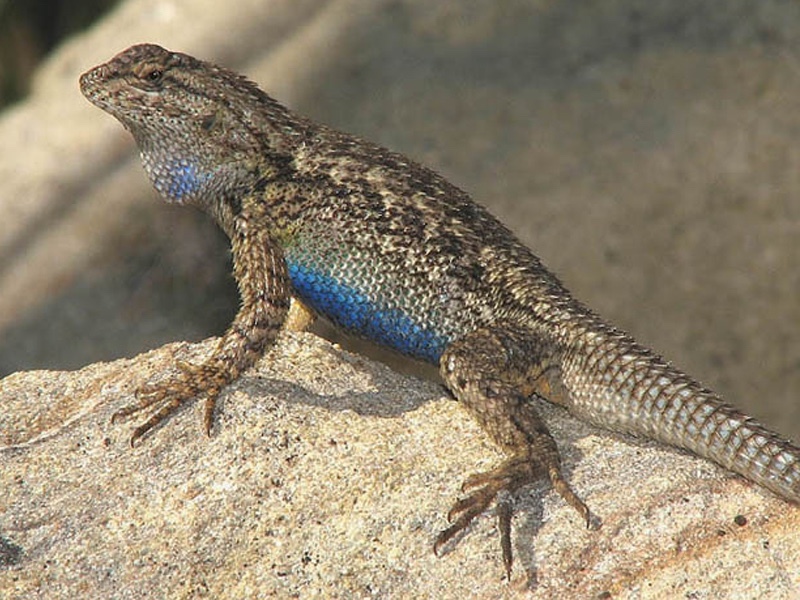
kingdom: Animalia
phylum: Chordata
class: Squamata
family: Phrynosomatidae
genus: Sceloporus
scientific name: Sceloporus occidentalis
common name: Western fence lizard
